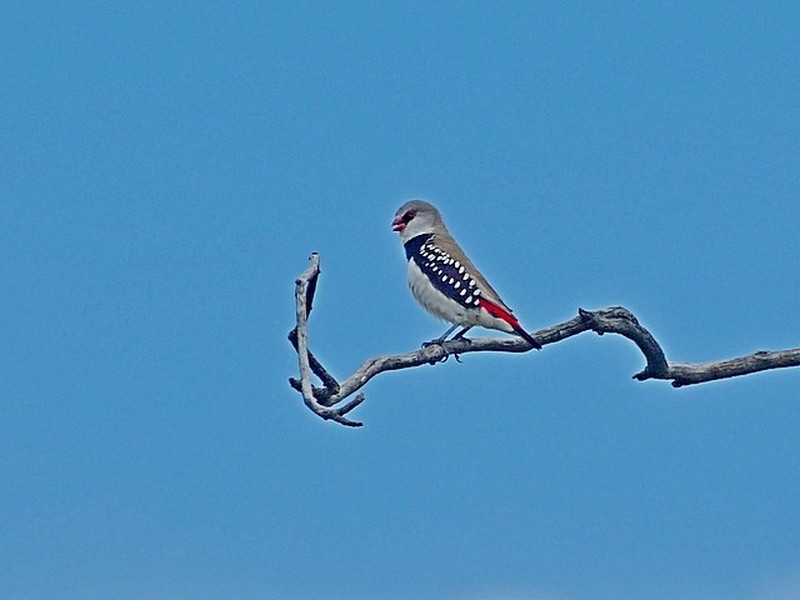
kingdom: Animalia
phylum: Chordata
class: Aves
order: Passeriformes
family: Estrildidae
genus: Stagonopleura
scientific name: Stagonopleura guttata
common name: Diamond firetail
